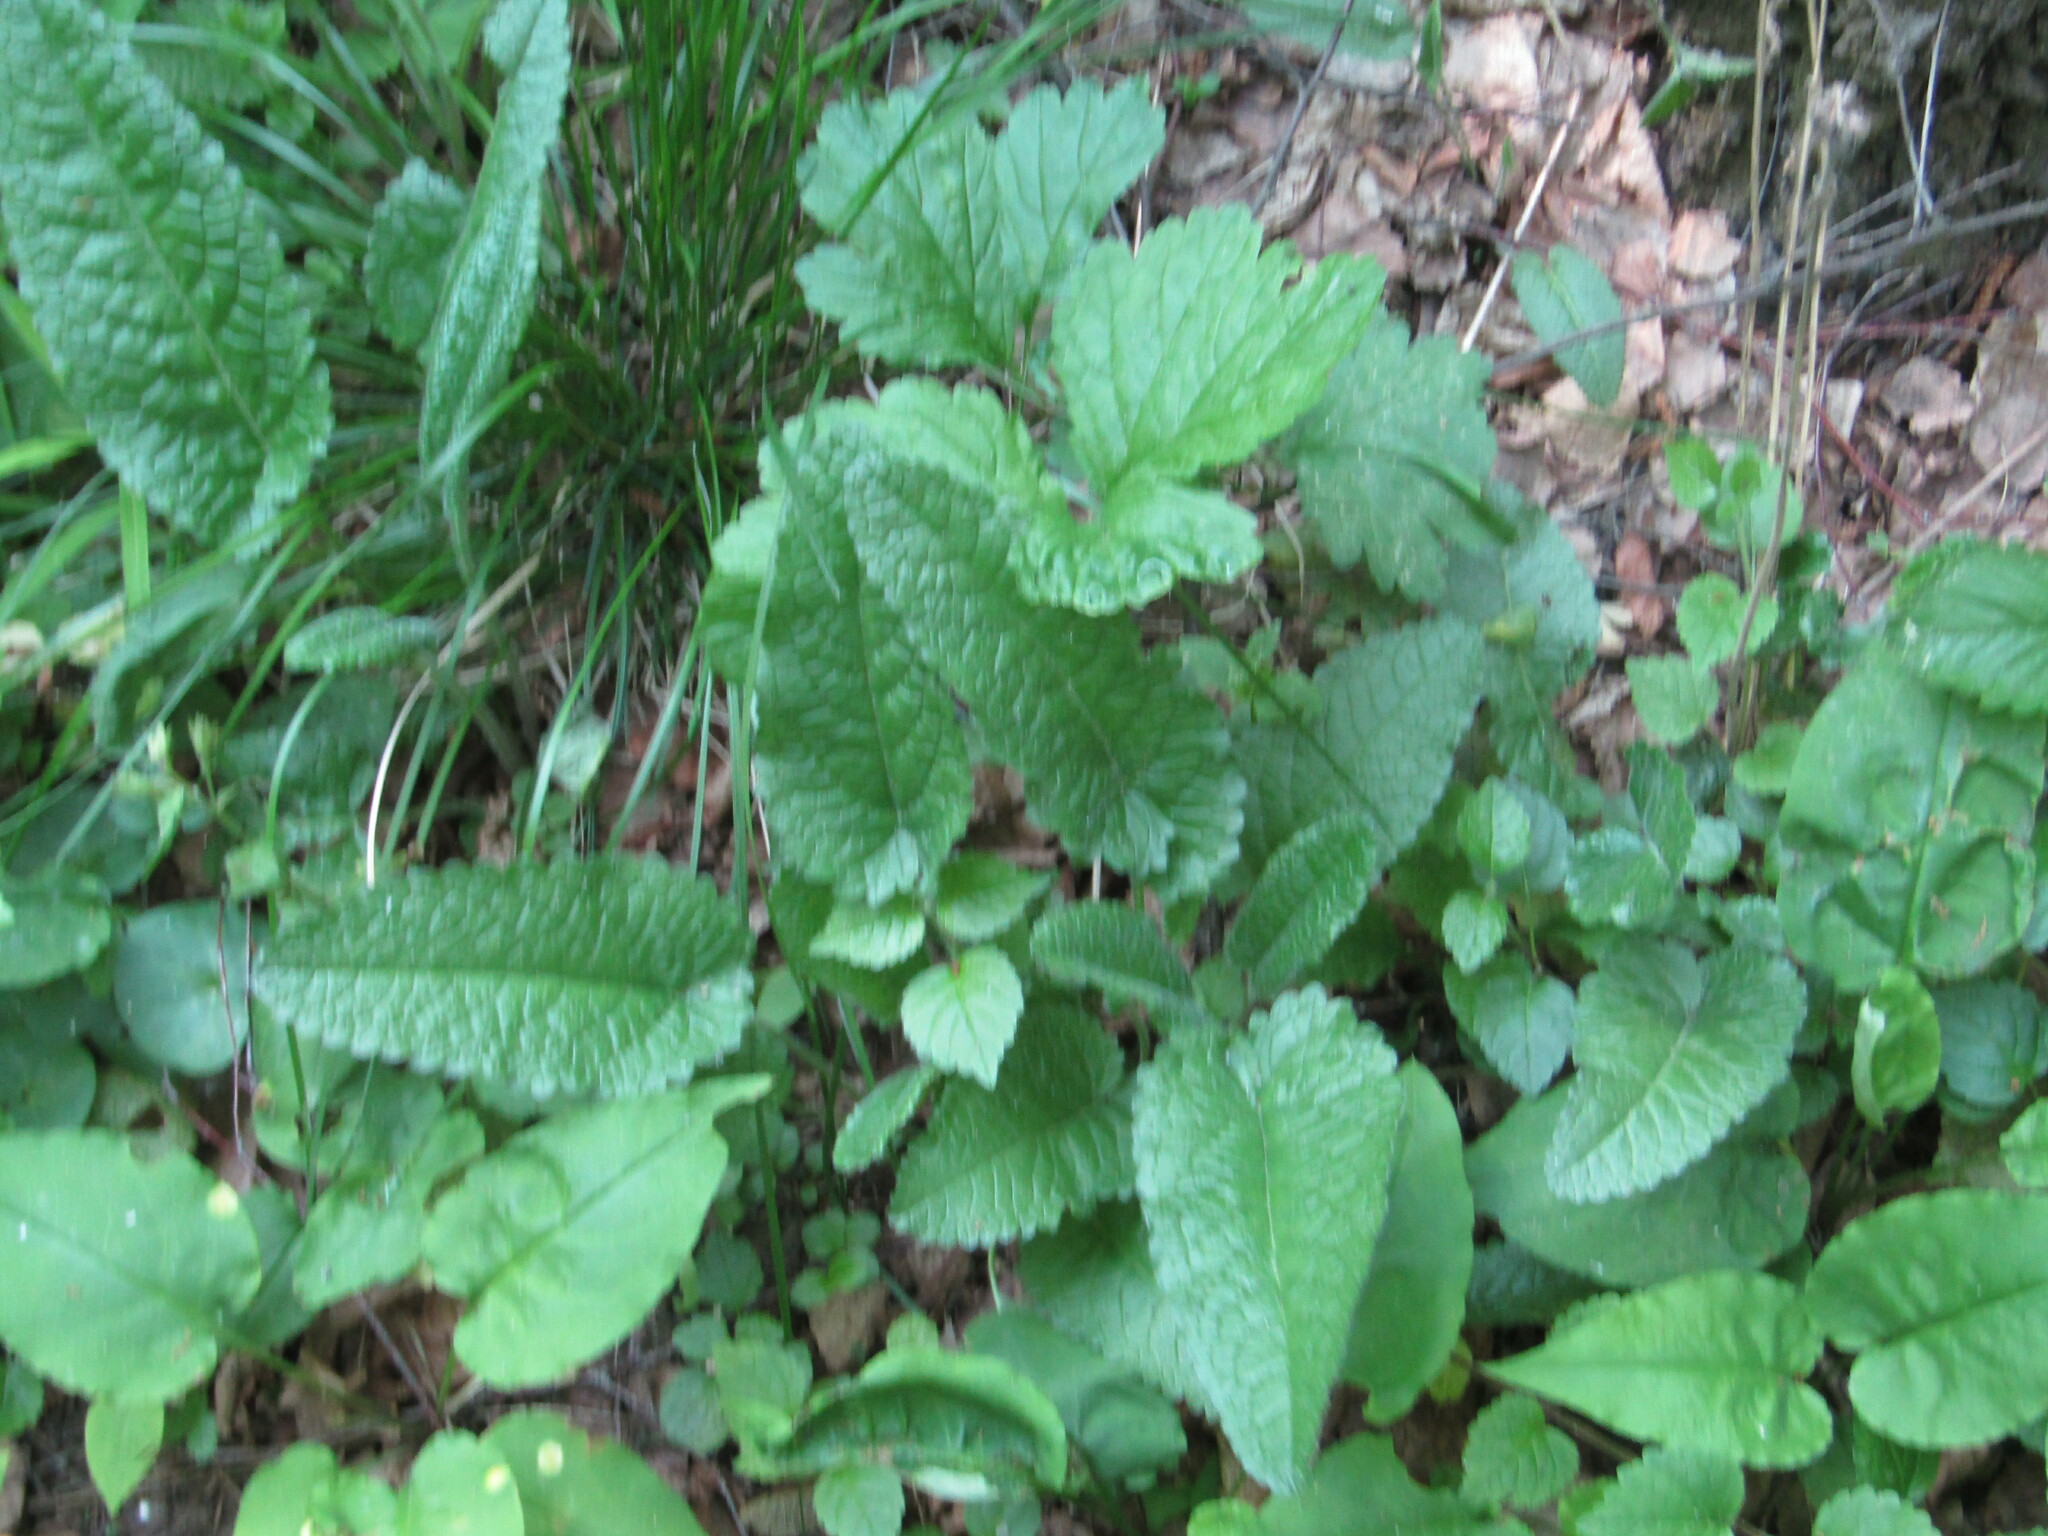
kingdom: Plantae
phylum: Tracheophyta
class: Magnoliopsida
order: Lamiales
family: Lamiaceae
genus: Betonica
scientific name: Betonica officinalis
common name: Bishop's-wort
